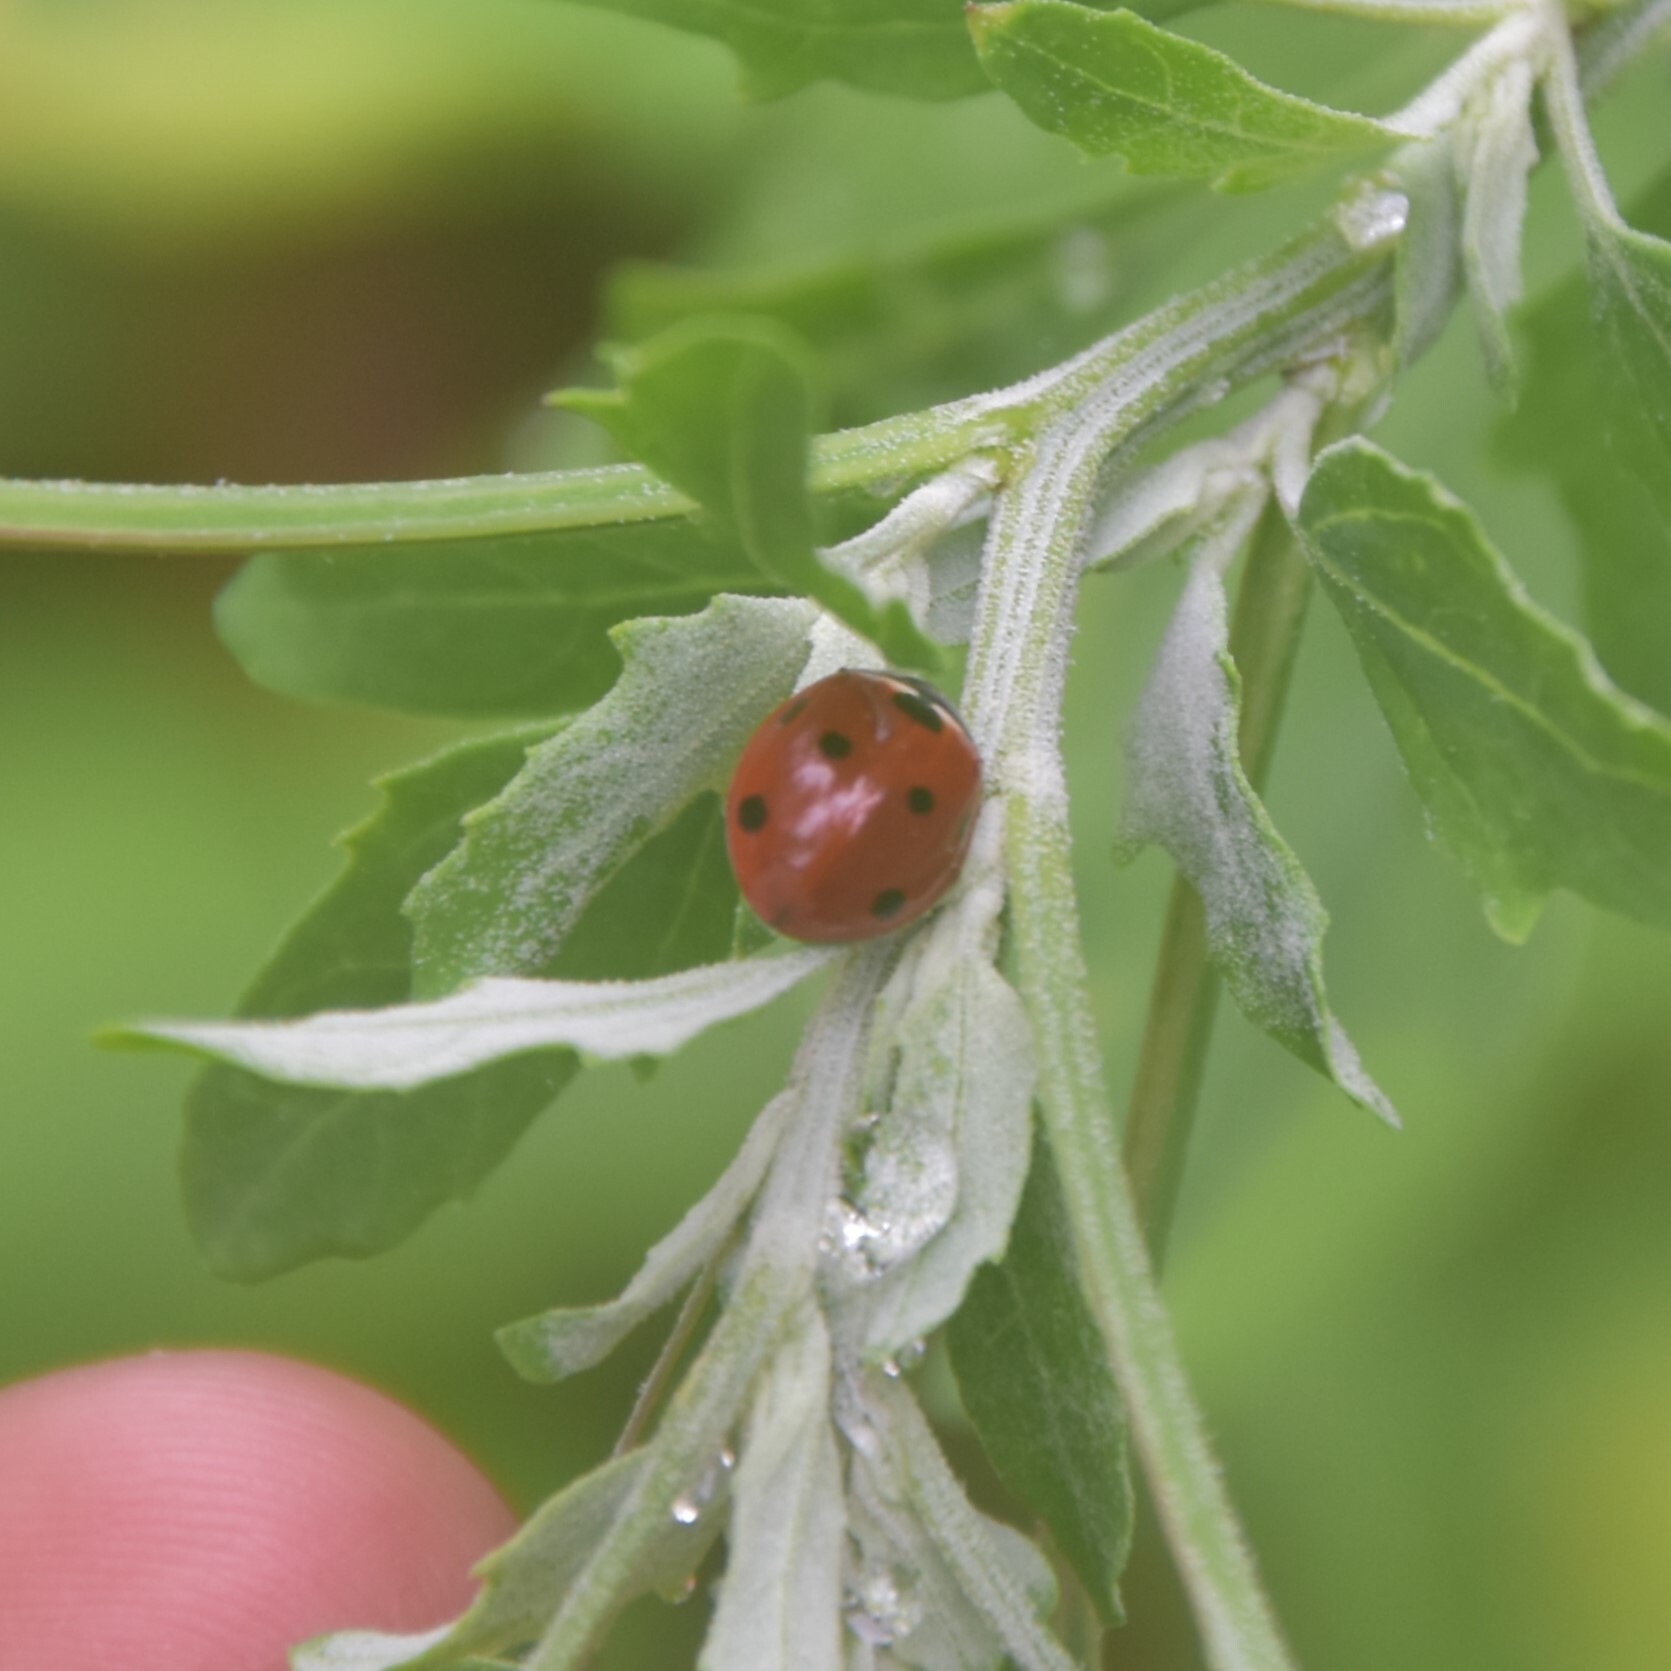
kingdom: Animalia
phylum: Arthropoda
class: Insecta
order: Coleoptera
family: Coccinellidae
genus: Coccinella
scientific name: Coccinella septempunctata
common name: Sevenspotted lady beetle
